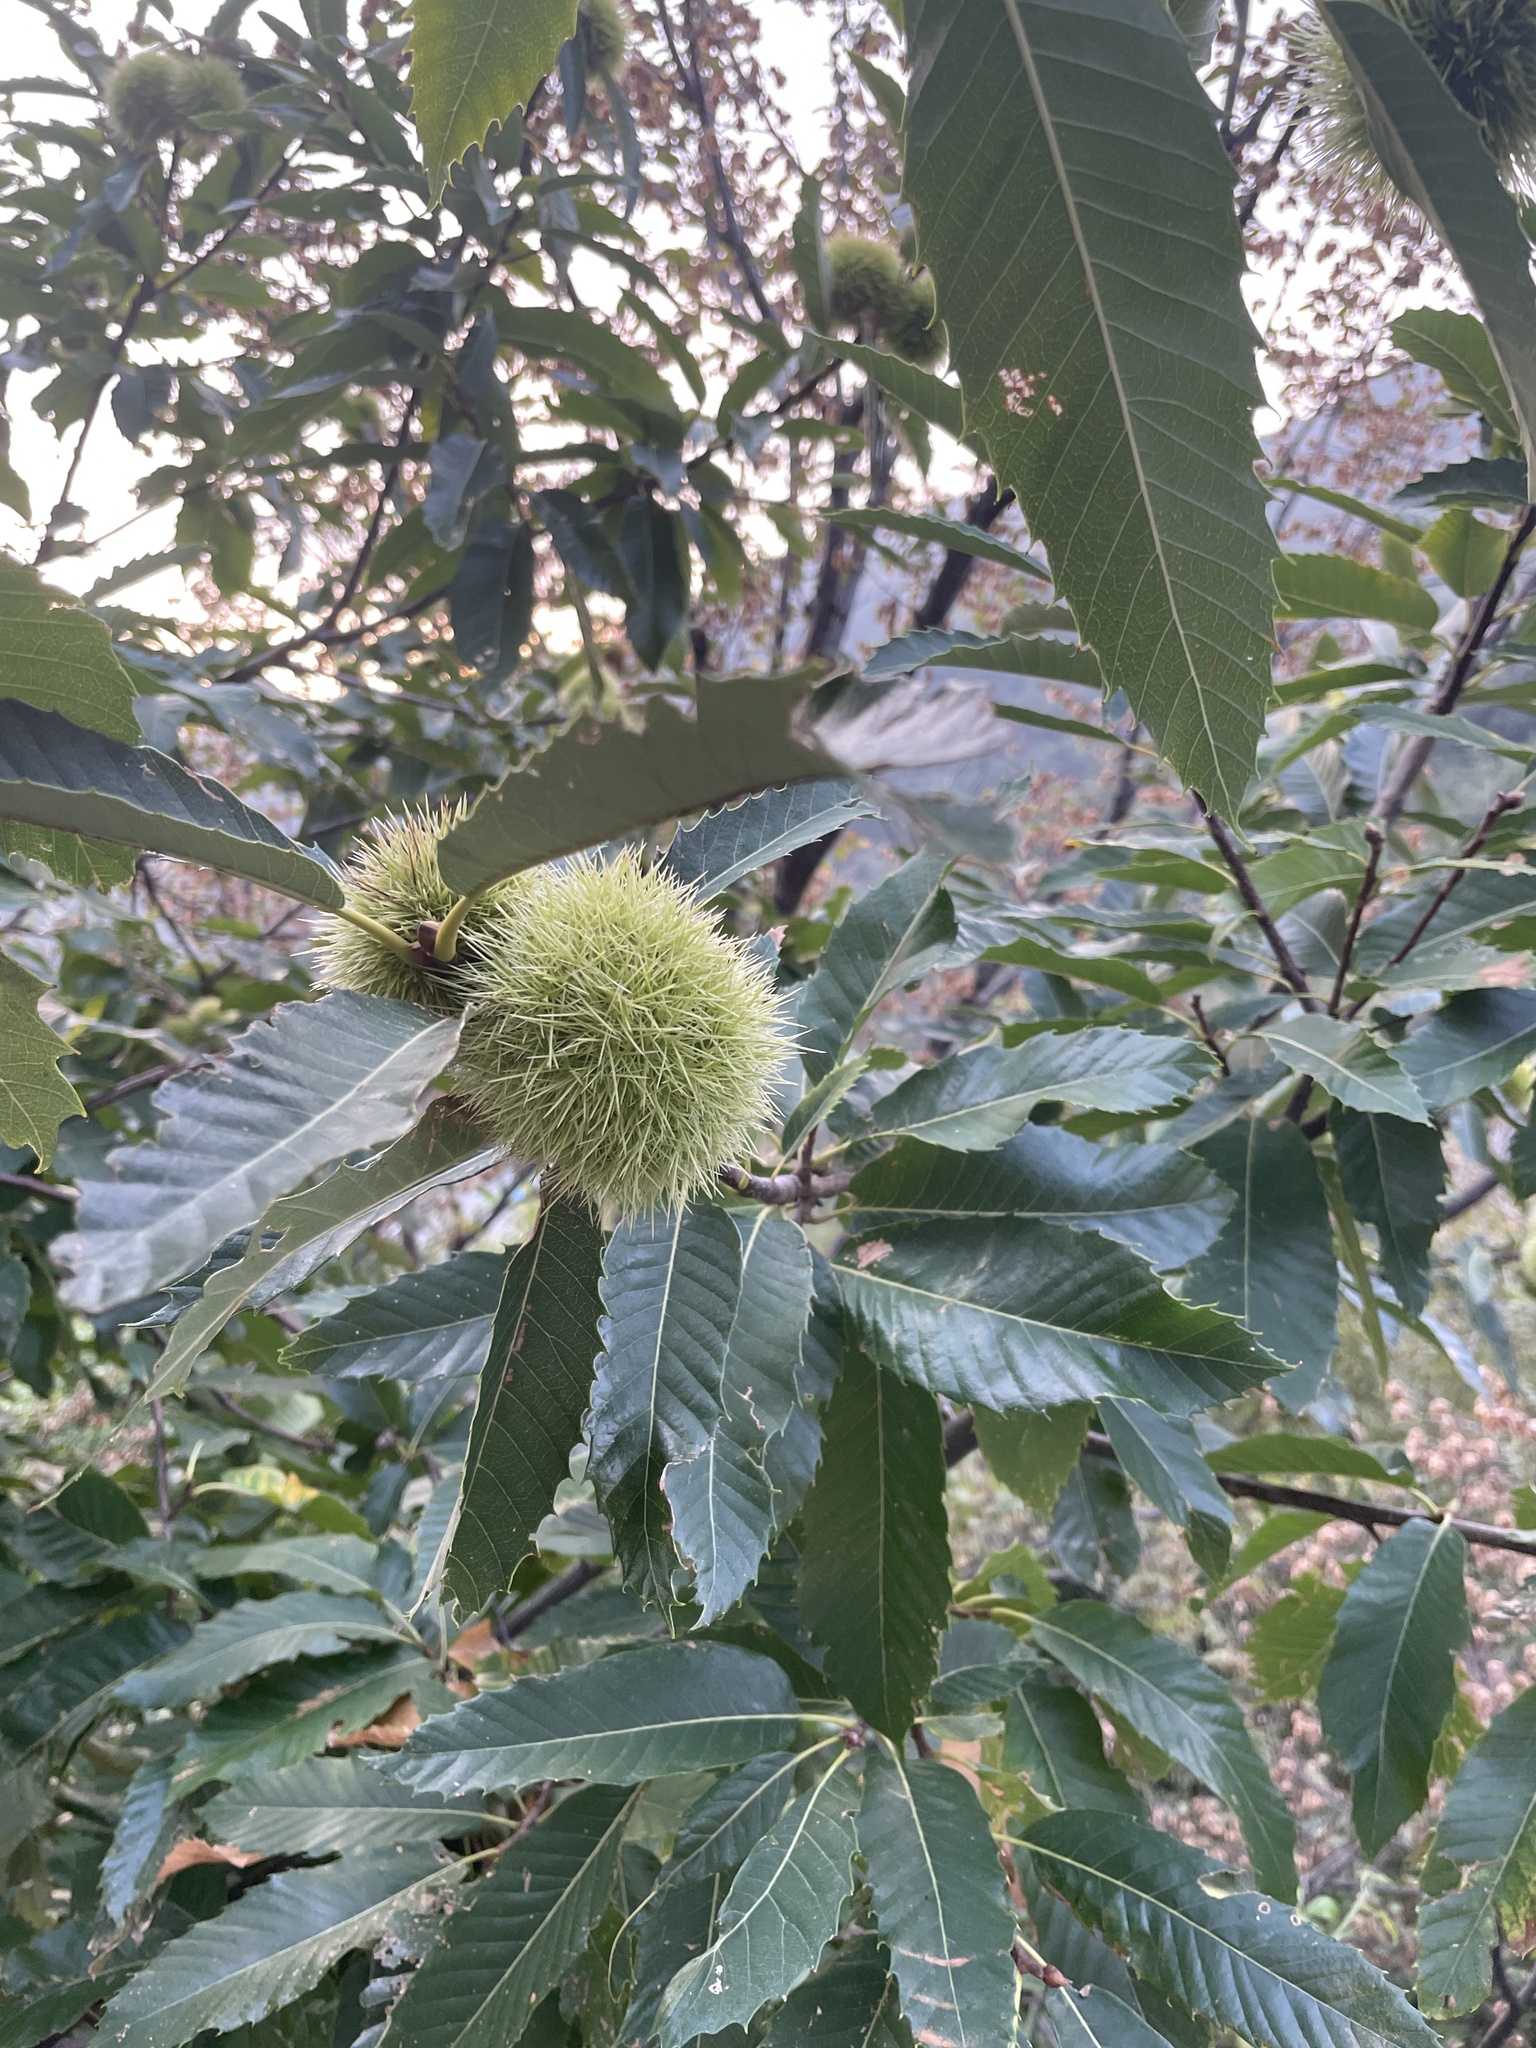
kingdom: Plantae
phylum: Tracheophyta
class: Magnoliopsida
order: Fagales
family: Fagaceae
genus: Castanea
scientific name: Castanea sativa
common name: Sweet chestnut
